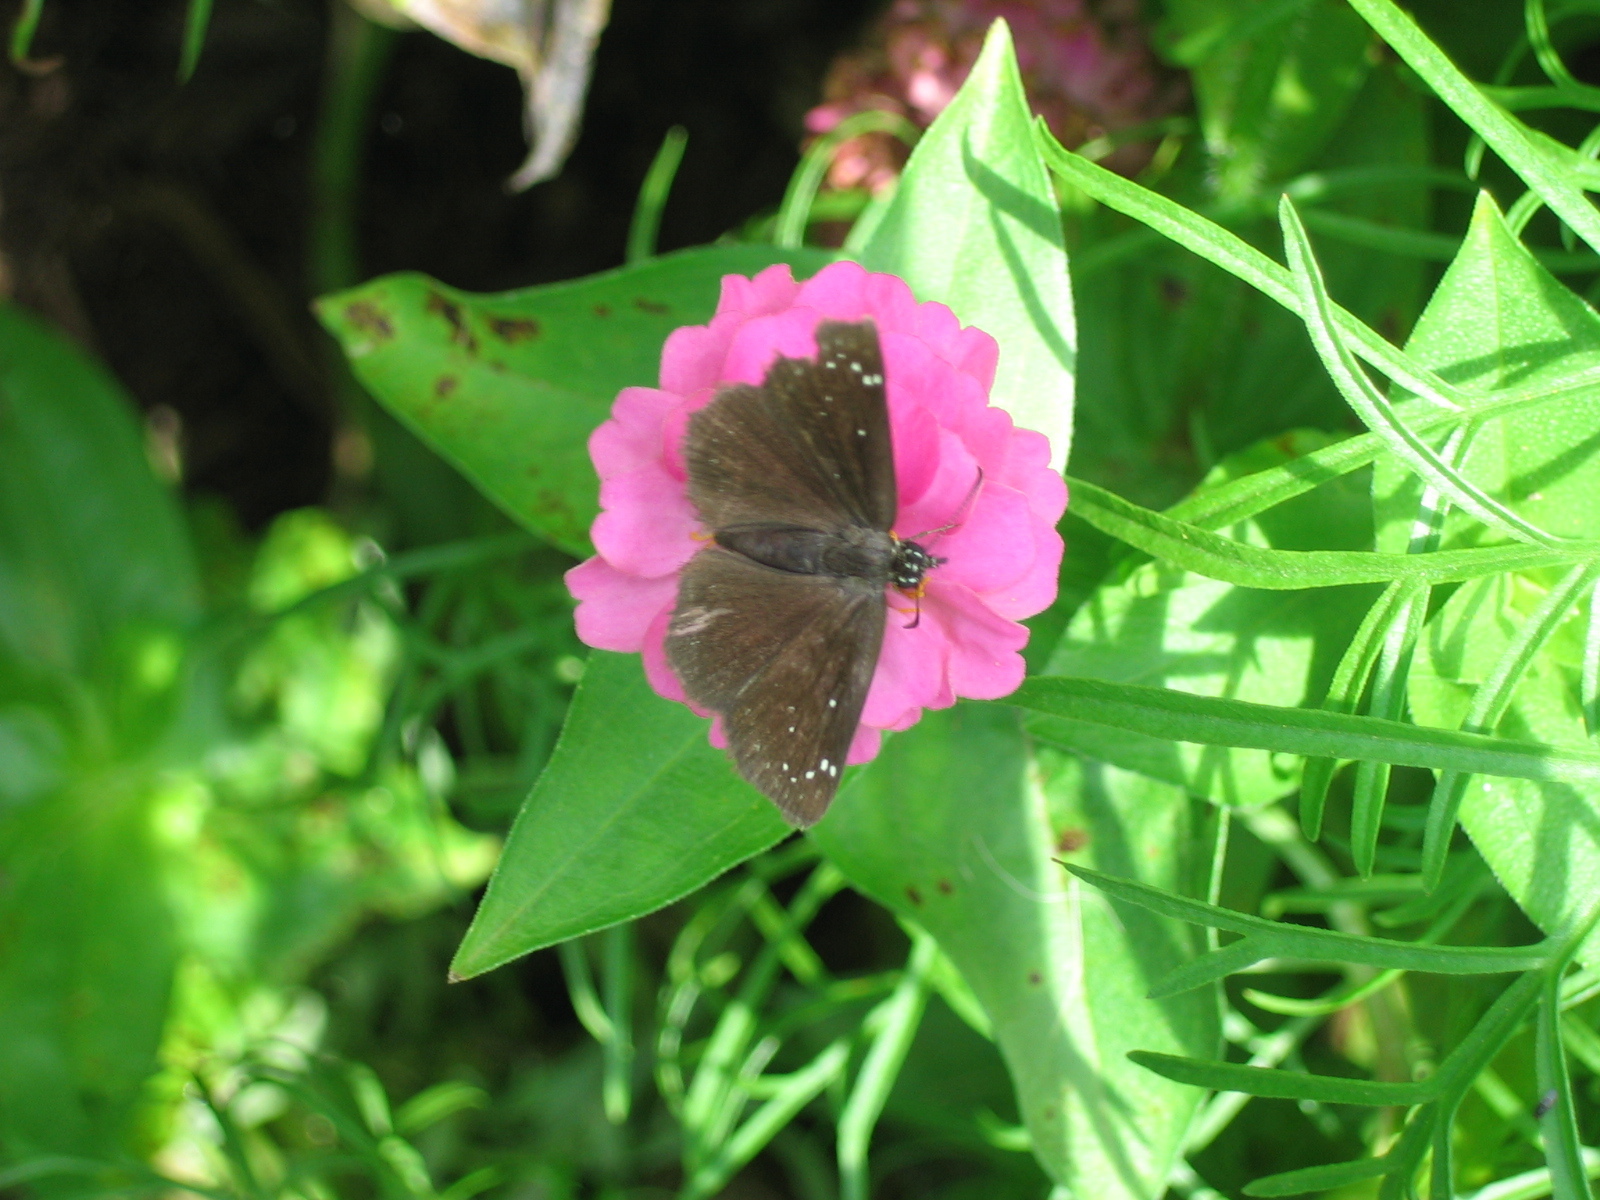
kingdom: Animalia
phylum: Arthropoda
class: Insecta
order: Lepidoptera
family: Hesperiidae
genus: Pholisora
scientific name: Pholisora catullus
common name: Common sootywing
